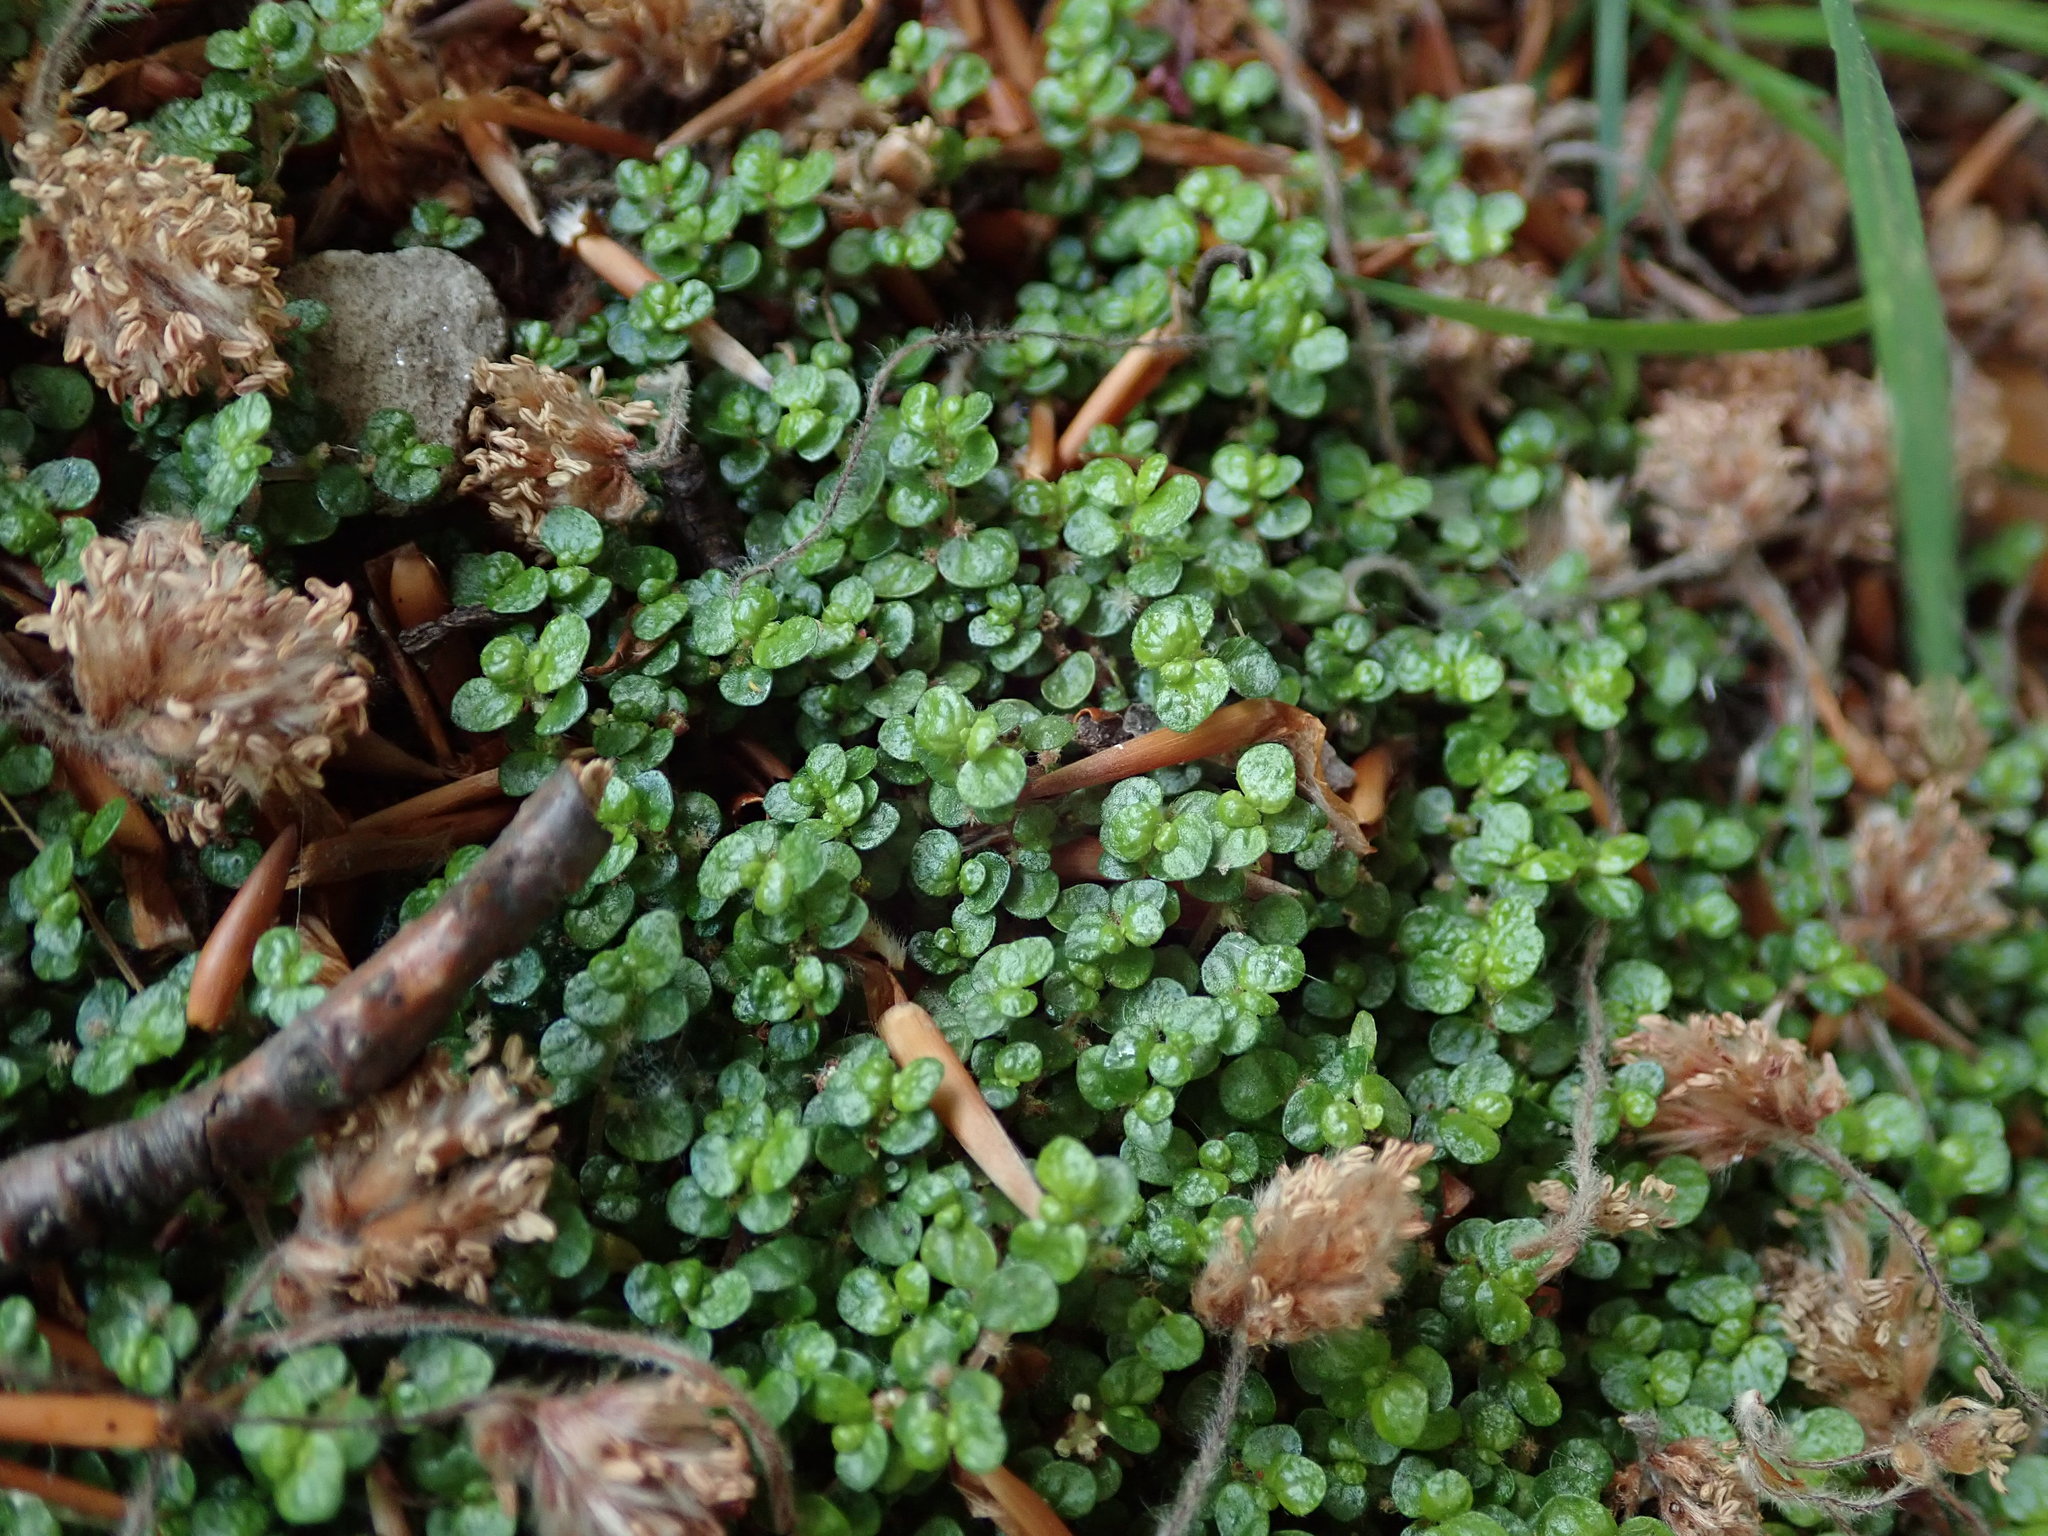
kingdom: Plantae
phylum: Tracheophyta
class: Magnoliopsida
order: Rosales
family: Urticaceae
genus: Soleirolia
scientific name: Soleirolia soleirolii
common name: Mind-your-own-business
